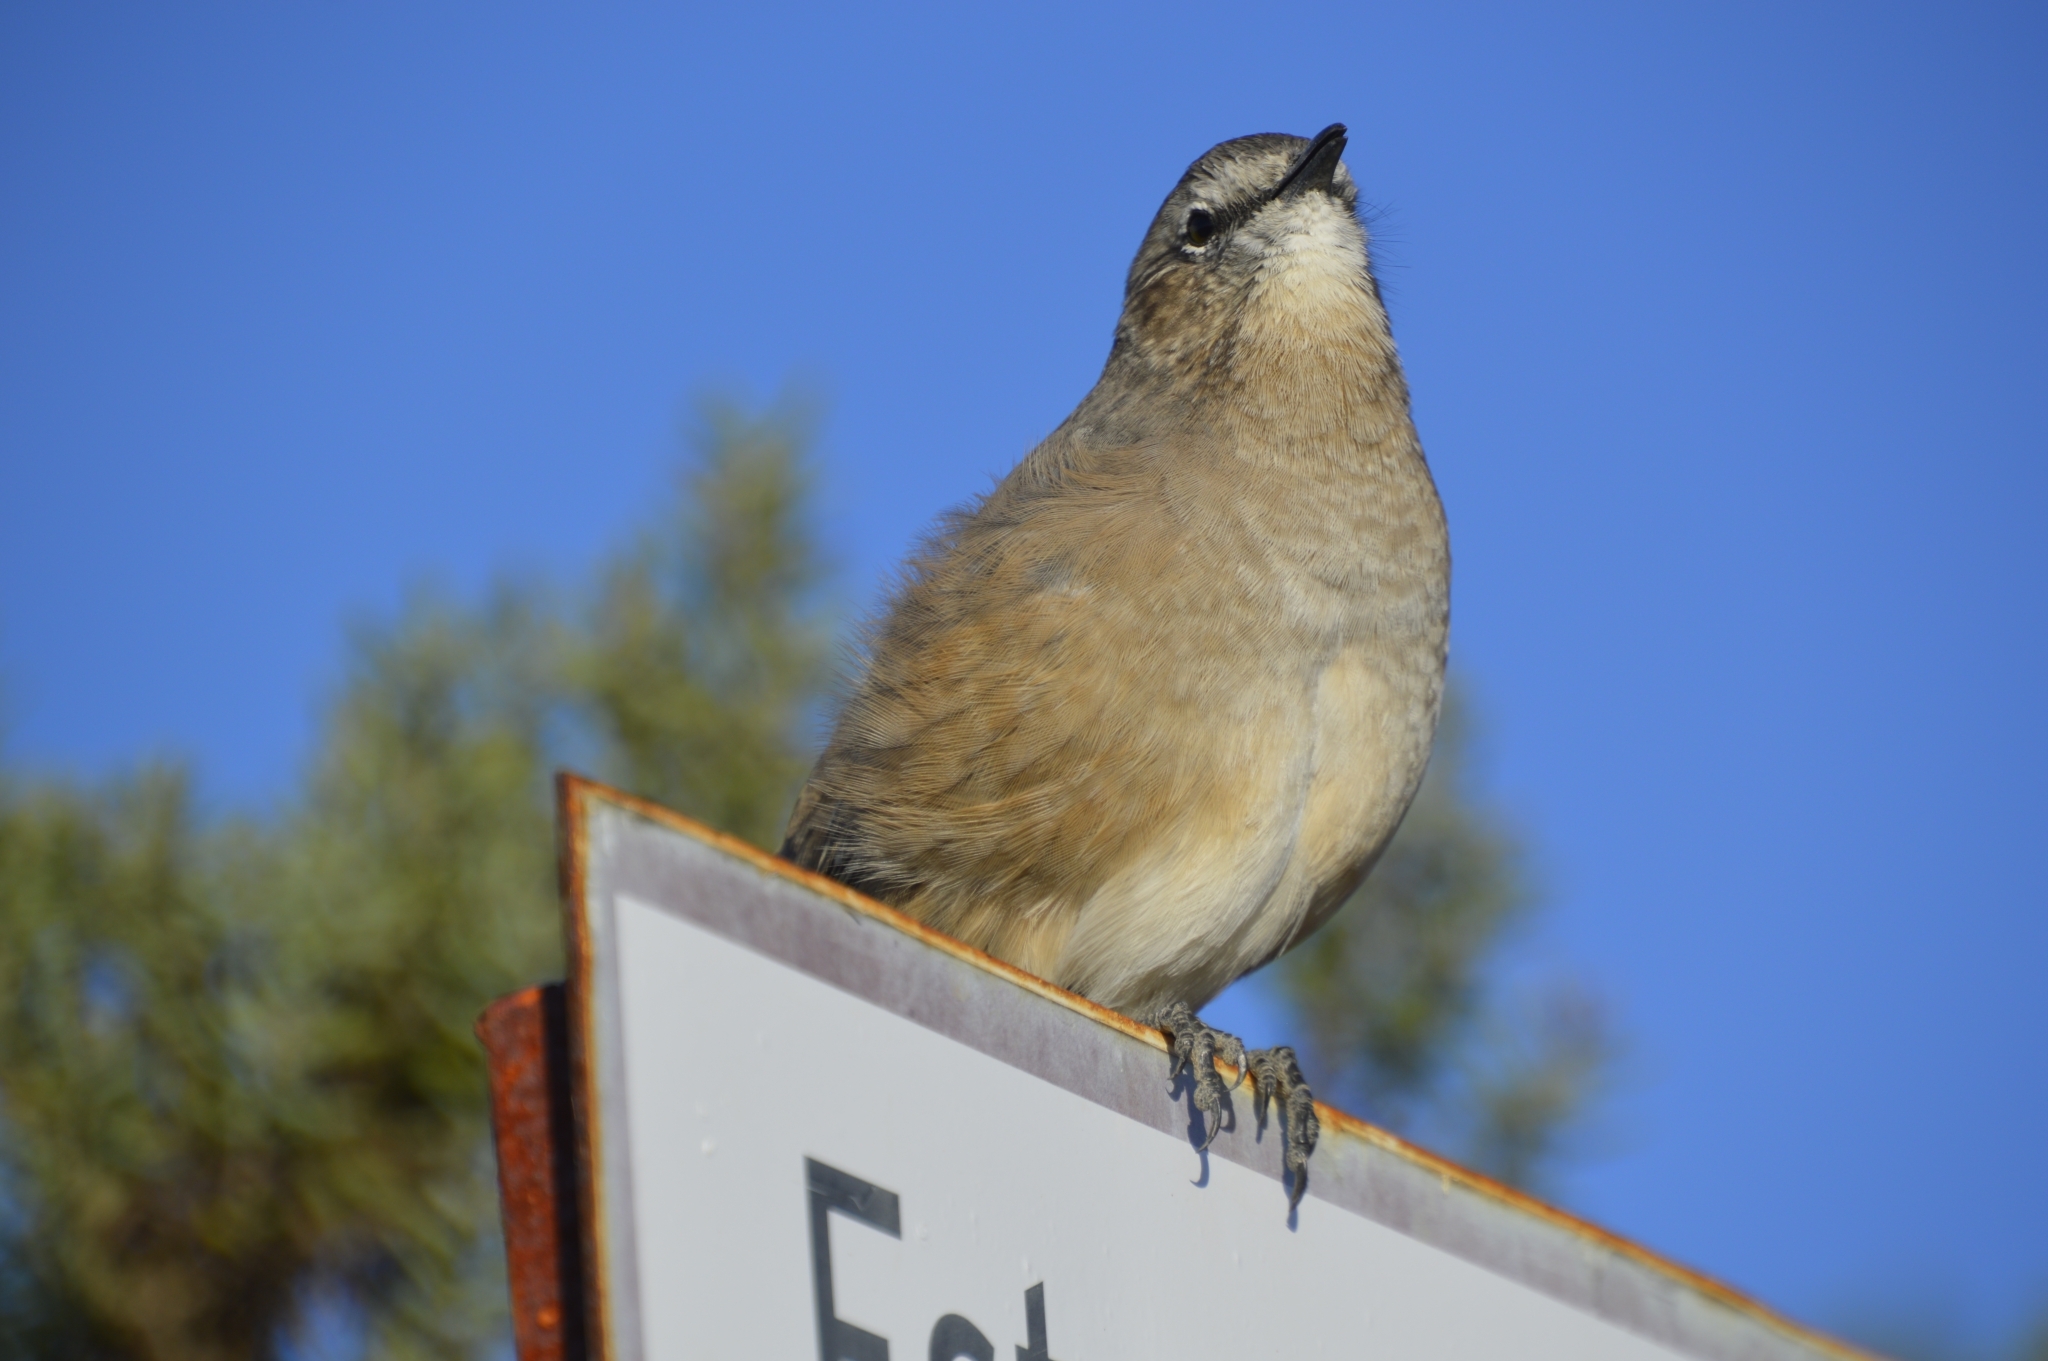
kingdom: Animalia
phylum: Chordata
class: Aves
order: Passeriformes
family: Mimidae
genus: Mimus
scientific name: Mimus patagonicus
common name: Patagonian mockingbird
